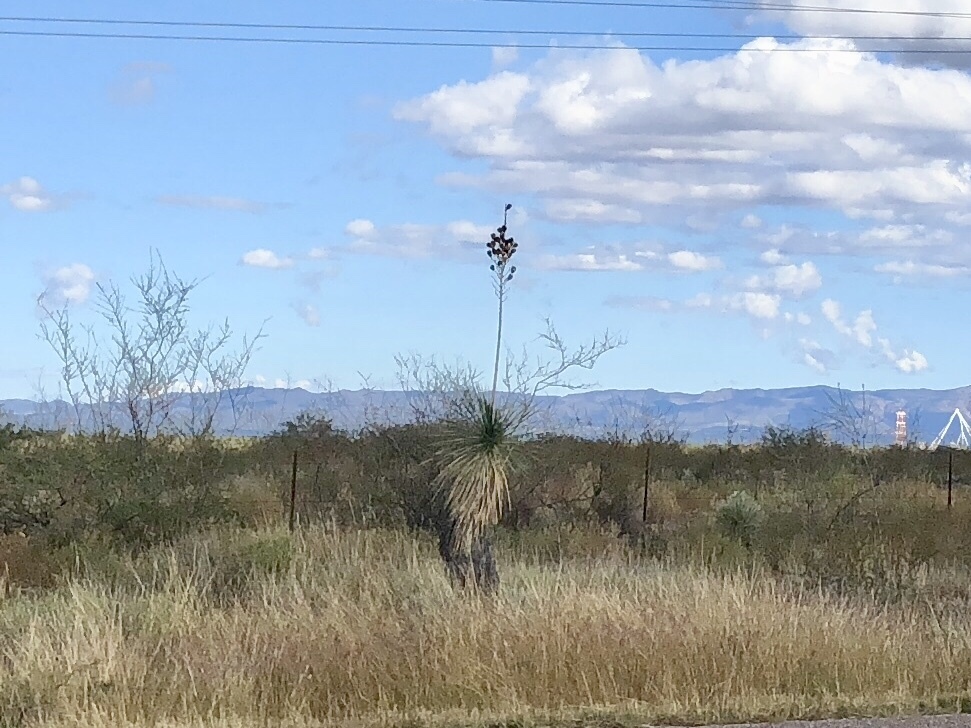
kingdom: Plantae
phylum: Tracheophyta
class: Liliopsida
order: Asparagales
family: Asparagaceae
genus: Yucca
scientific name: Yucca elata
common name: Palmella
